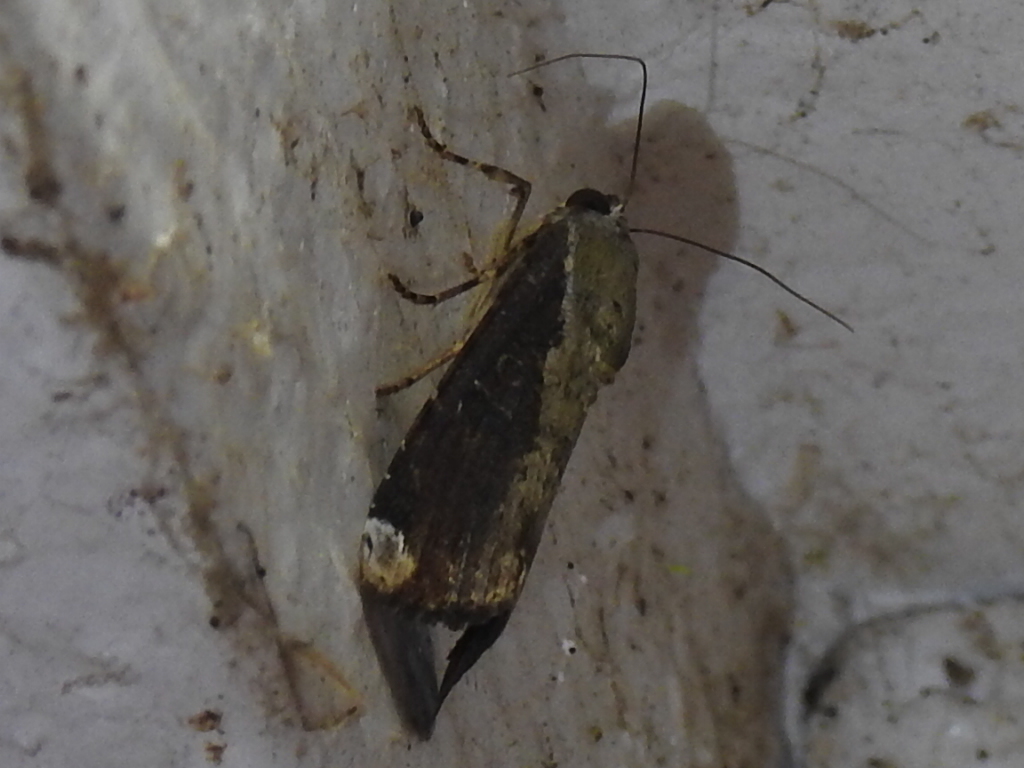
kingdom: Animalia
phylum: Arthropoda
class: Insecta
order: Lepidoptera
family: Noctuidae
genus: Magusa
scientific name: Magusa divaricata
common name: Orb narrow-winged moth
